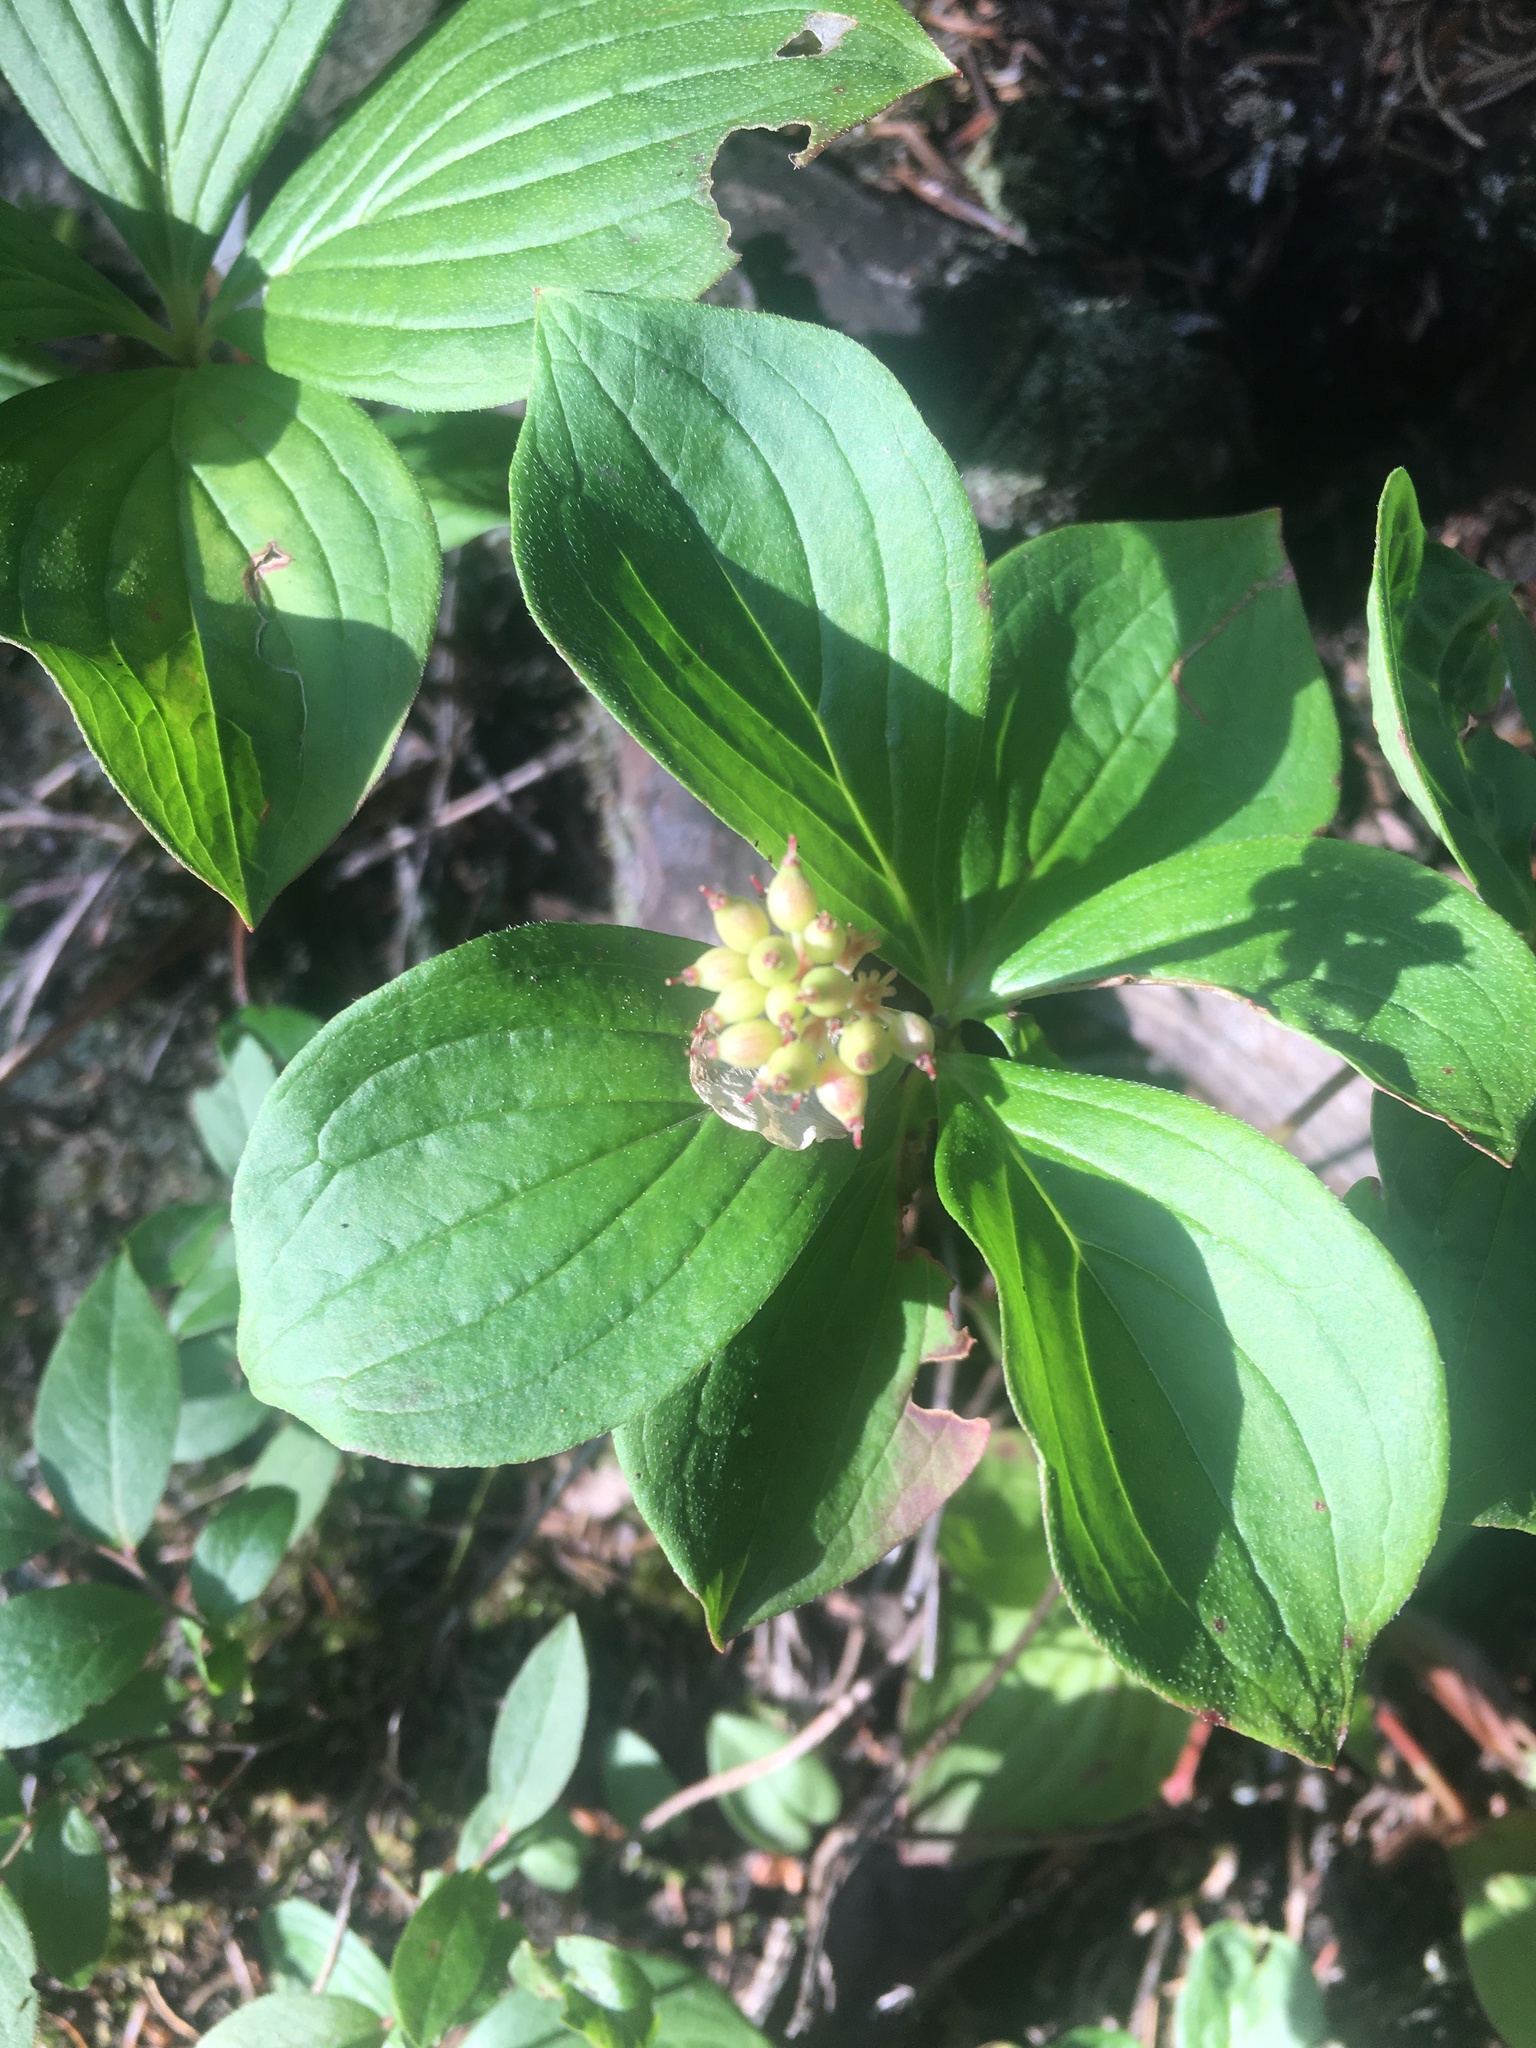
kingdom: Plantae
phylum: Tracheophyta
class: Magnoliopsida
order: Cornales
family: Cornaceae
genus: Cornus
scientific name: Cornus canadensis
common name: Creeping dogwood
